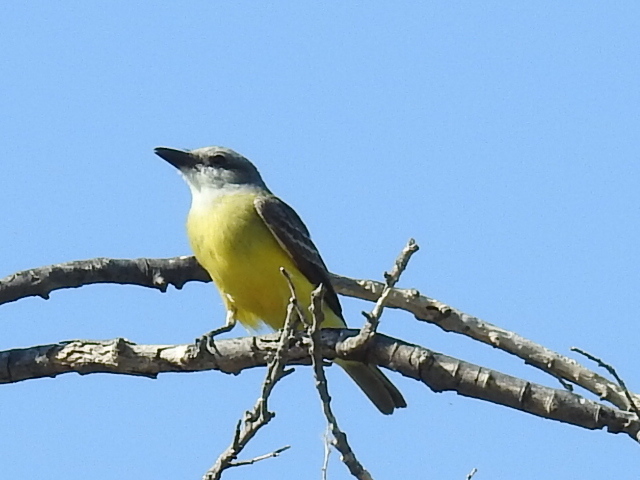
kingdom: Animalia
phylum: Chordata
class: Aves
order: Passeriformes
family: Tyrannidae
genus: Tyrannus
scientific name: Tyrannus
